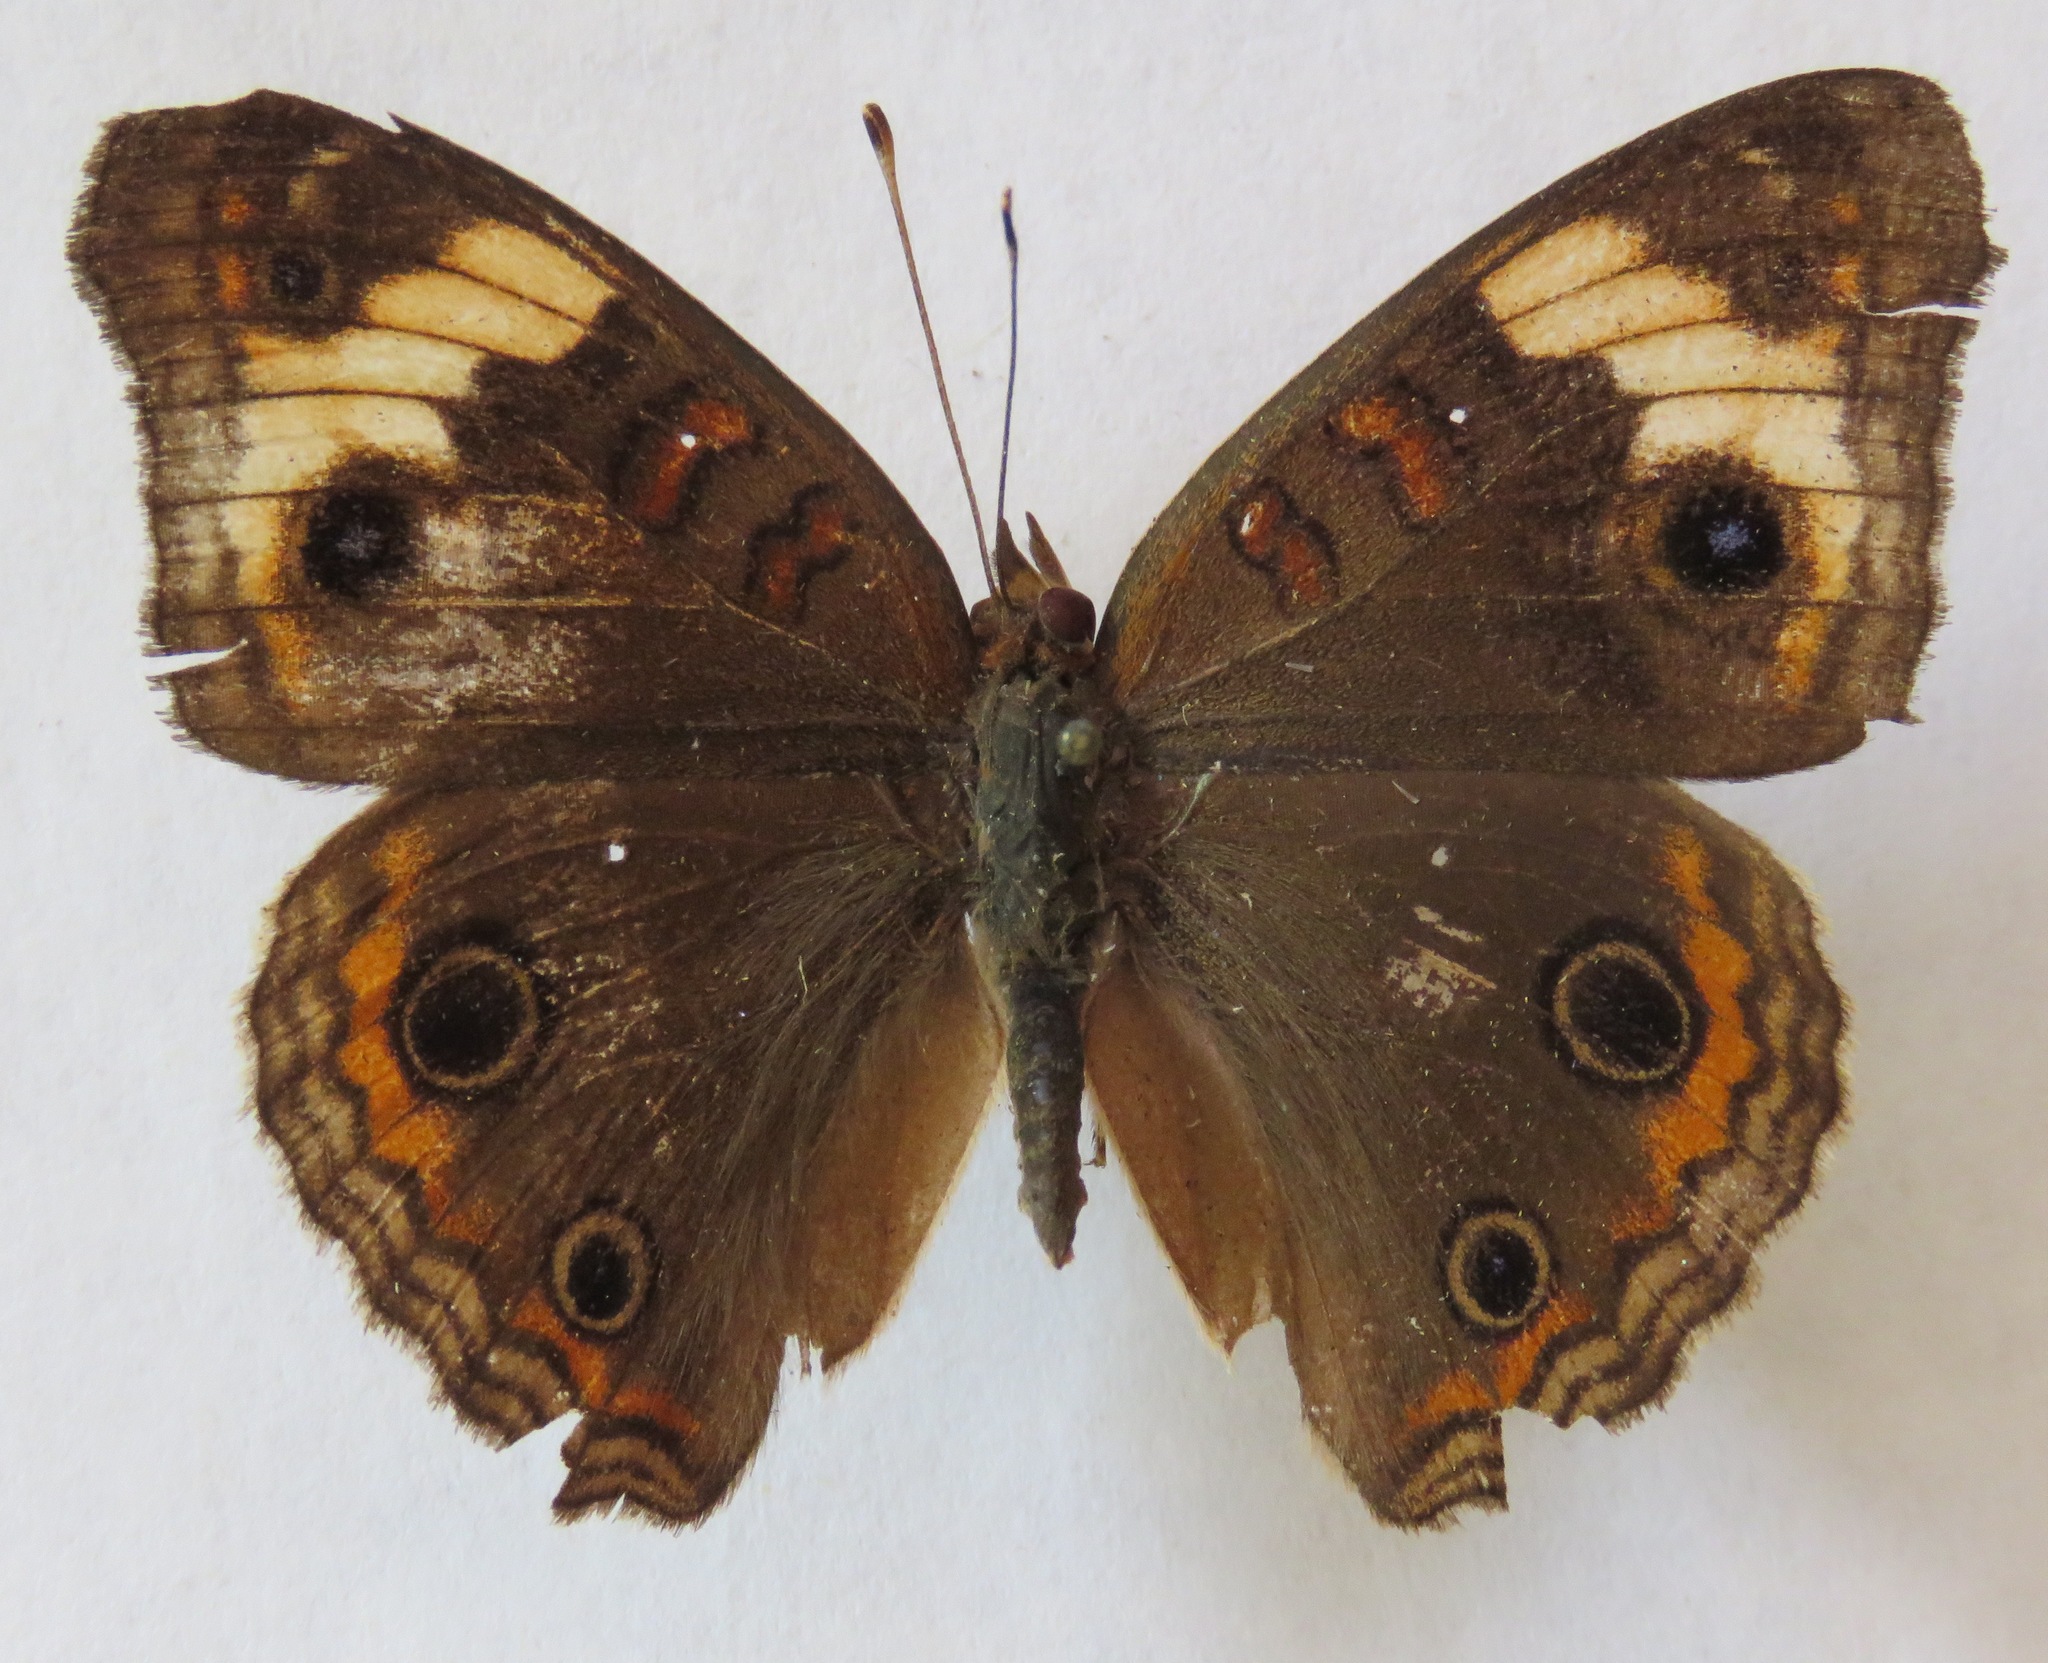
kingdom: Animalia
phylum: Arthropoda
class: Insecta
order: Lepidoptera
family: Nymphalidae
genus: Junonia
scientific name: Junonia lavinia
